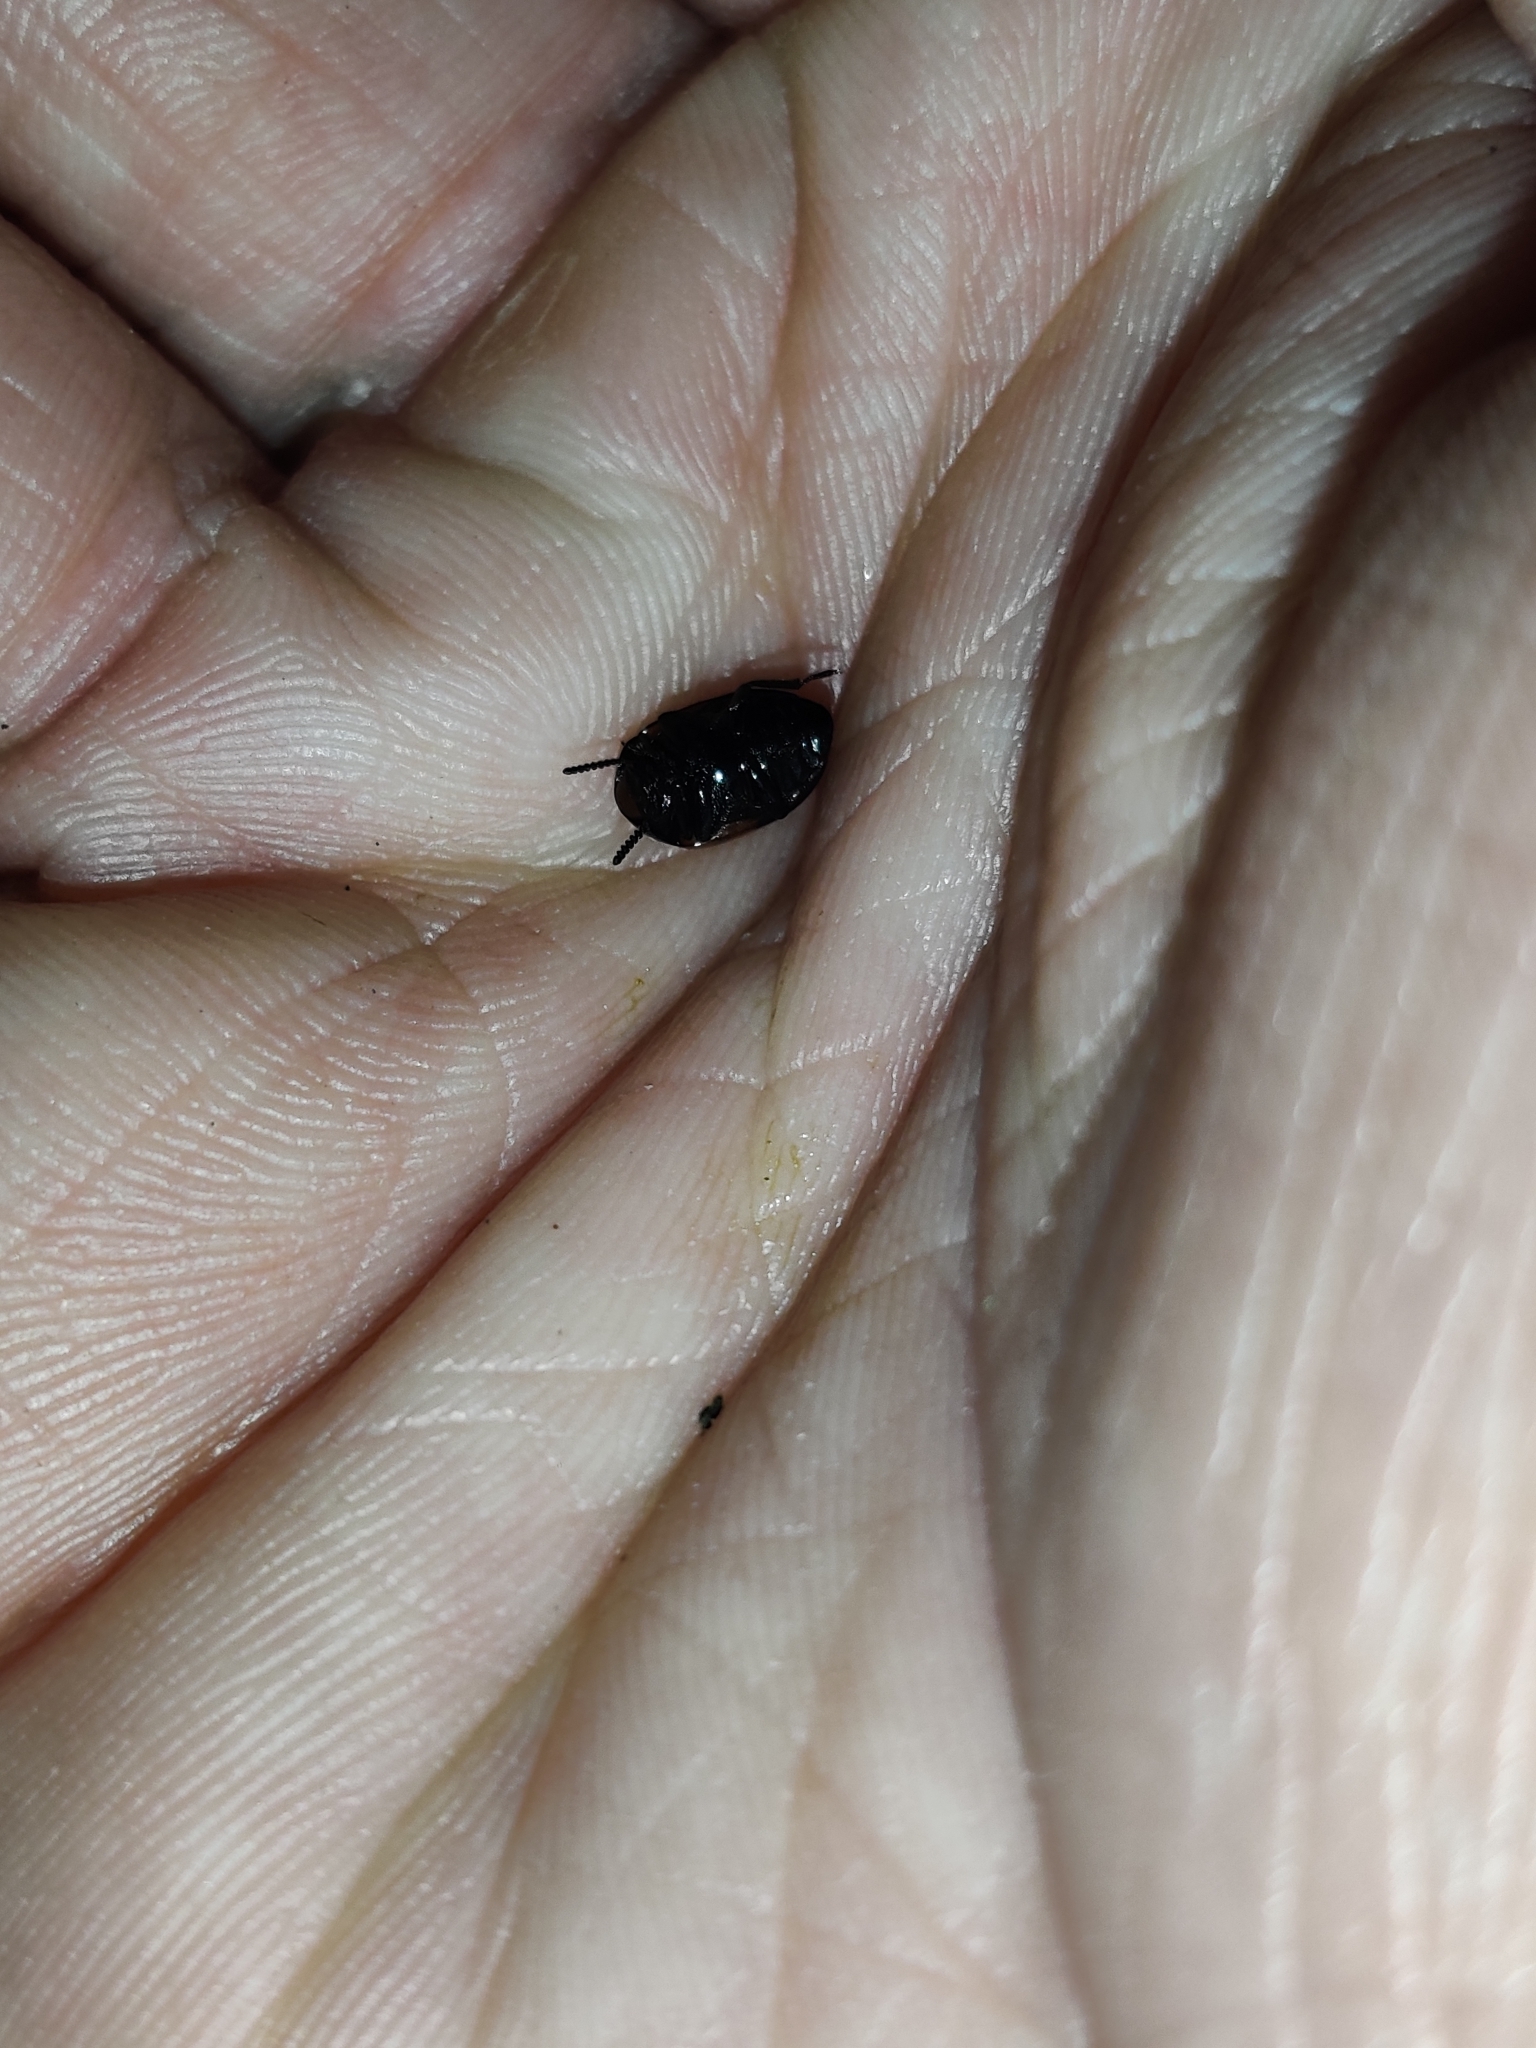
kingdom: Animalia
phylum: Arthropoda
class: Insecta
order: Coleoptera
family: Tenebrionidae
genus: Diaperis
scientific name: Diaperis maculata
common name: Darkling beetle
